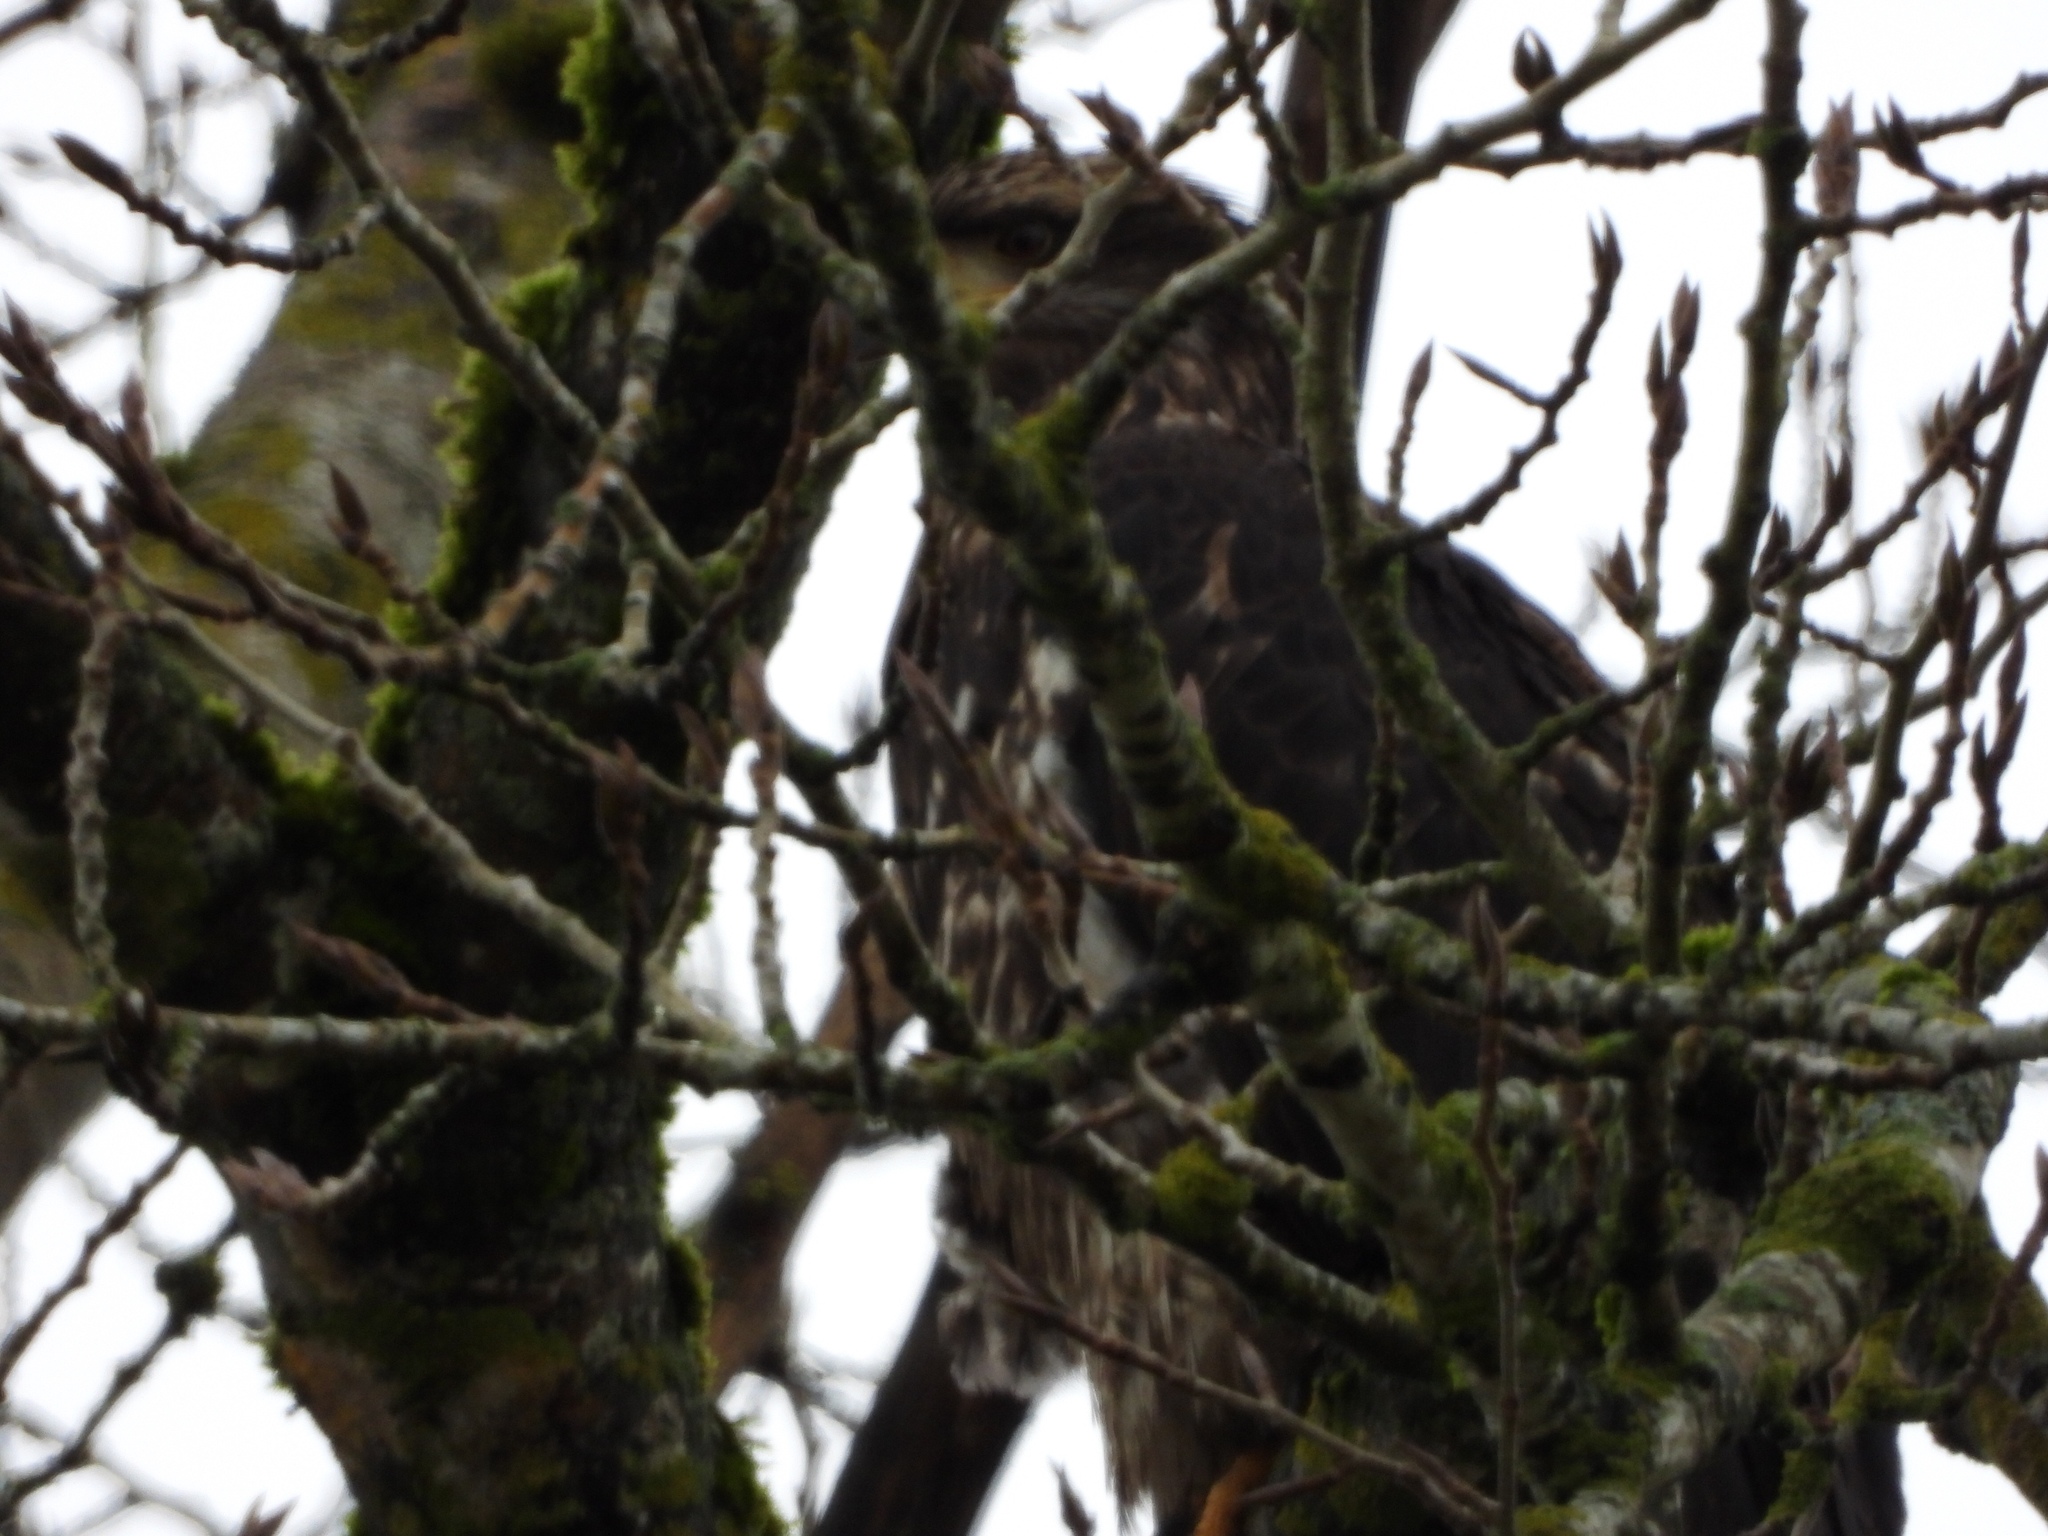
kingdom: Animalia
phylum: Chordata
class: Aves
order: Accipitriformes
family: Accipitridae
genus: Haliaeetus
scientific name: Haliaeetus leucocephalus
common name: Bald eagle
